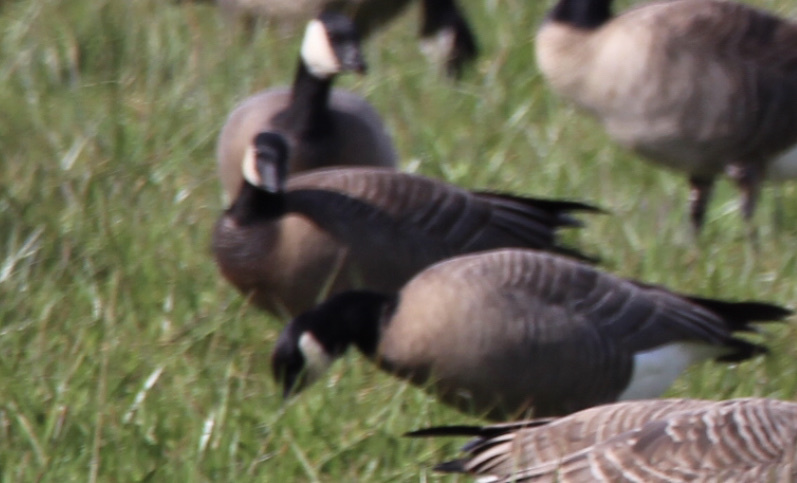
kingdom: Animalia
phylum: Chordata
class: Aves
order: Anseriformes
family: Anatidae
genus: Branta
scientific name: Branta hutchinsii
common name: Cackling goose
